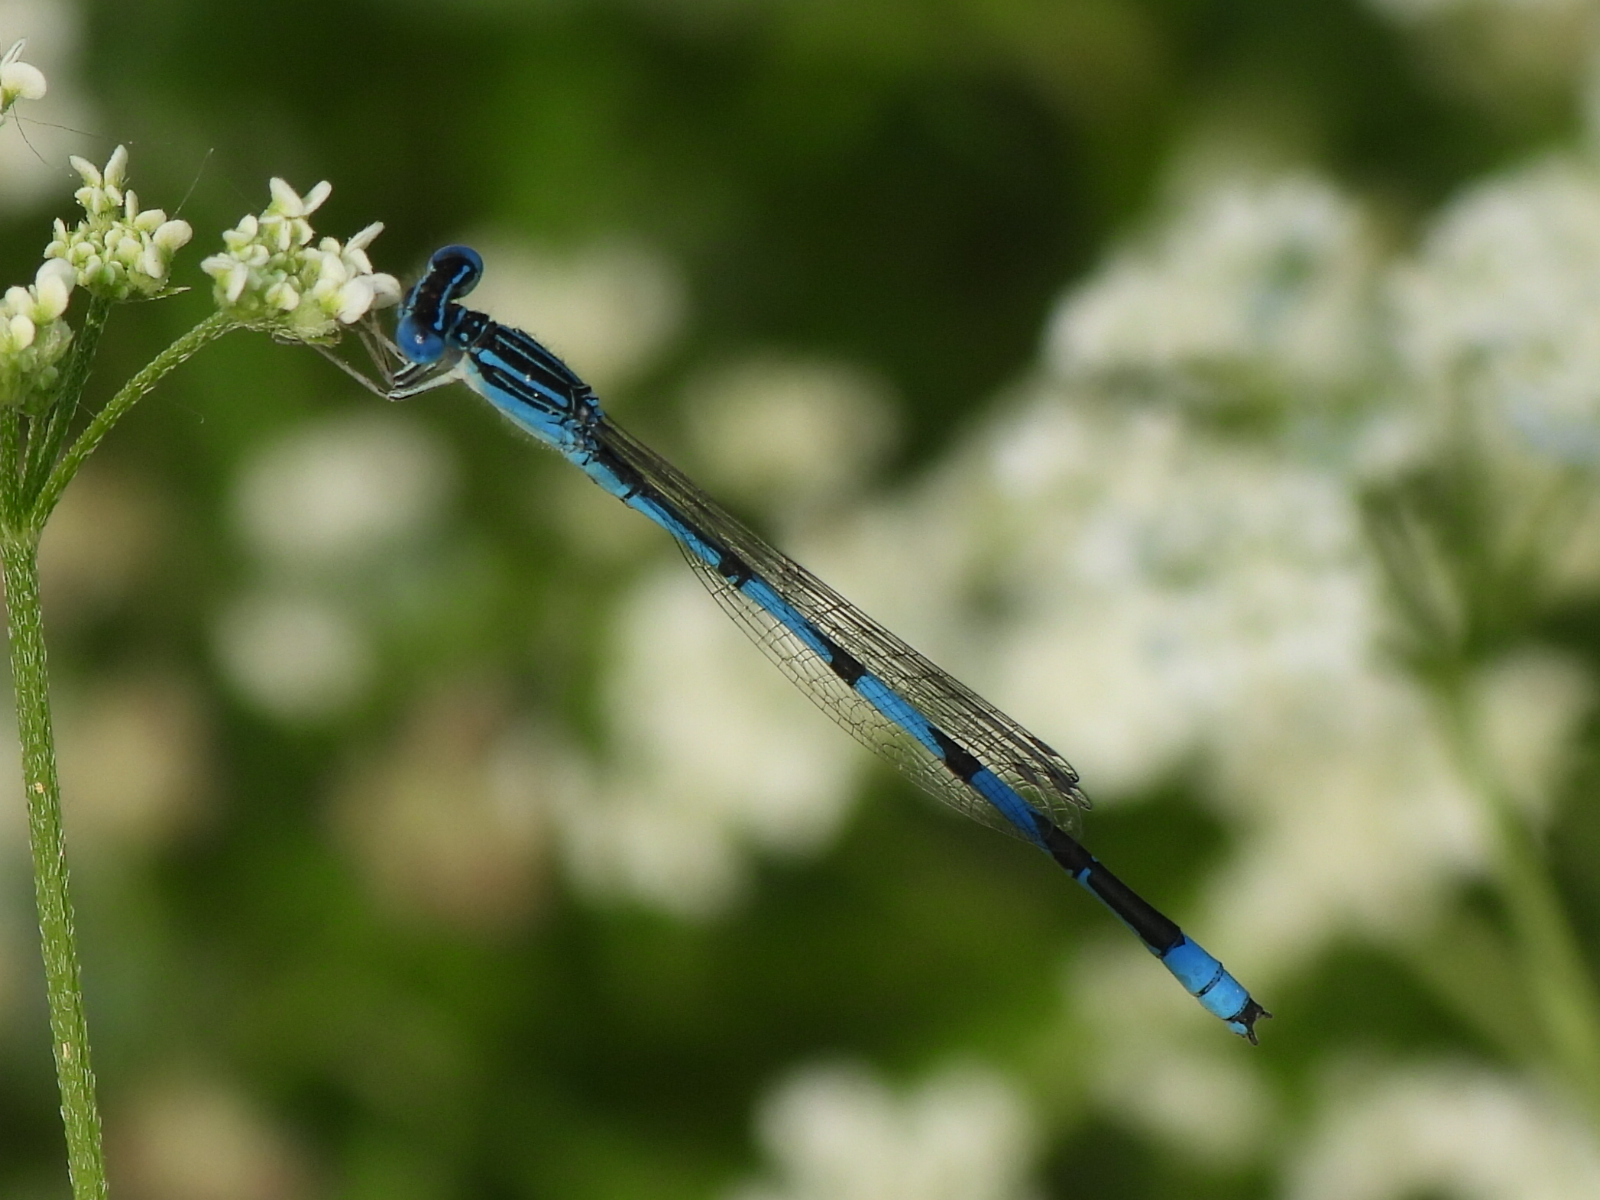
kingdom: Animalia
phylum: Arthropoda
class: Insecta
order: Odonata
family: Coenagrionidae
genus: Enallagma
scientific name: Enallagma basidens
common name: Double-striped bluet
